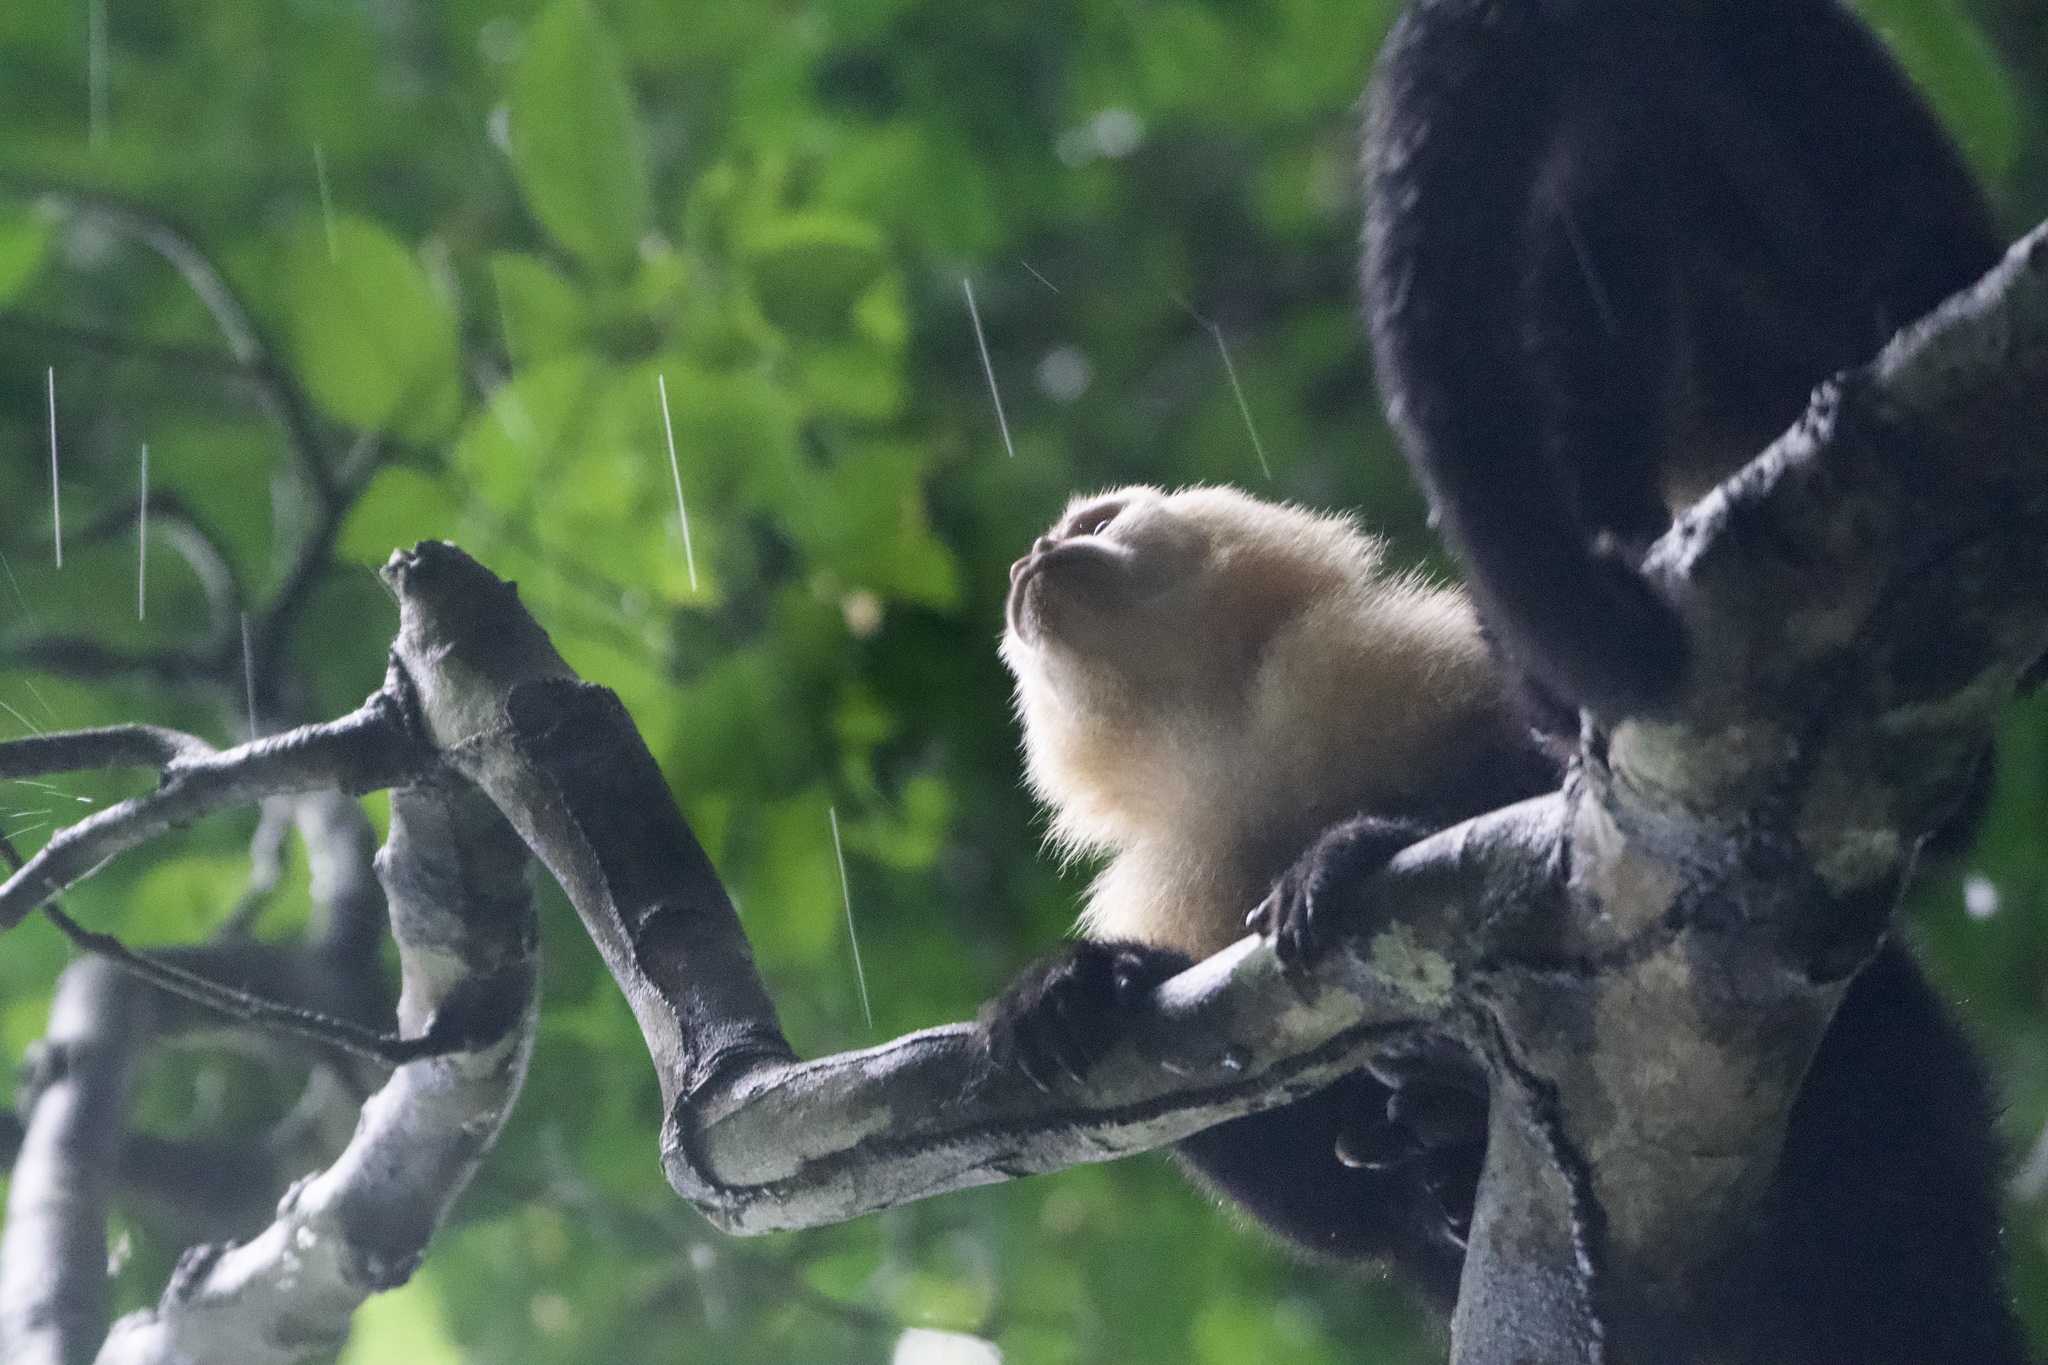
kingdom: Animalia
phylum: Chordata
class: Mammalia
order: Primates
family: Cebidae
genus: Cebus
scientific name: Cebus capucinus
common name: White-headed capuchin
